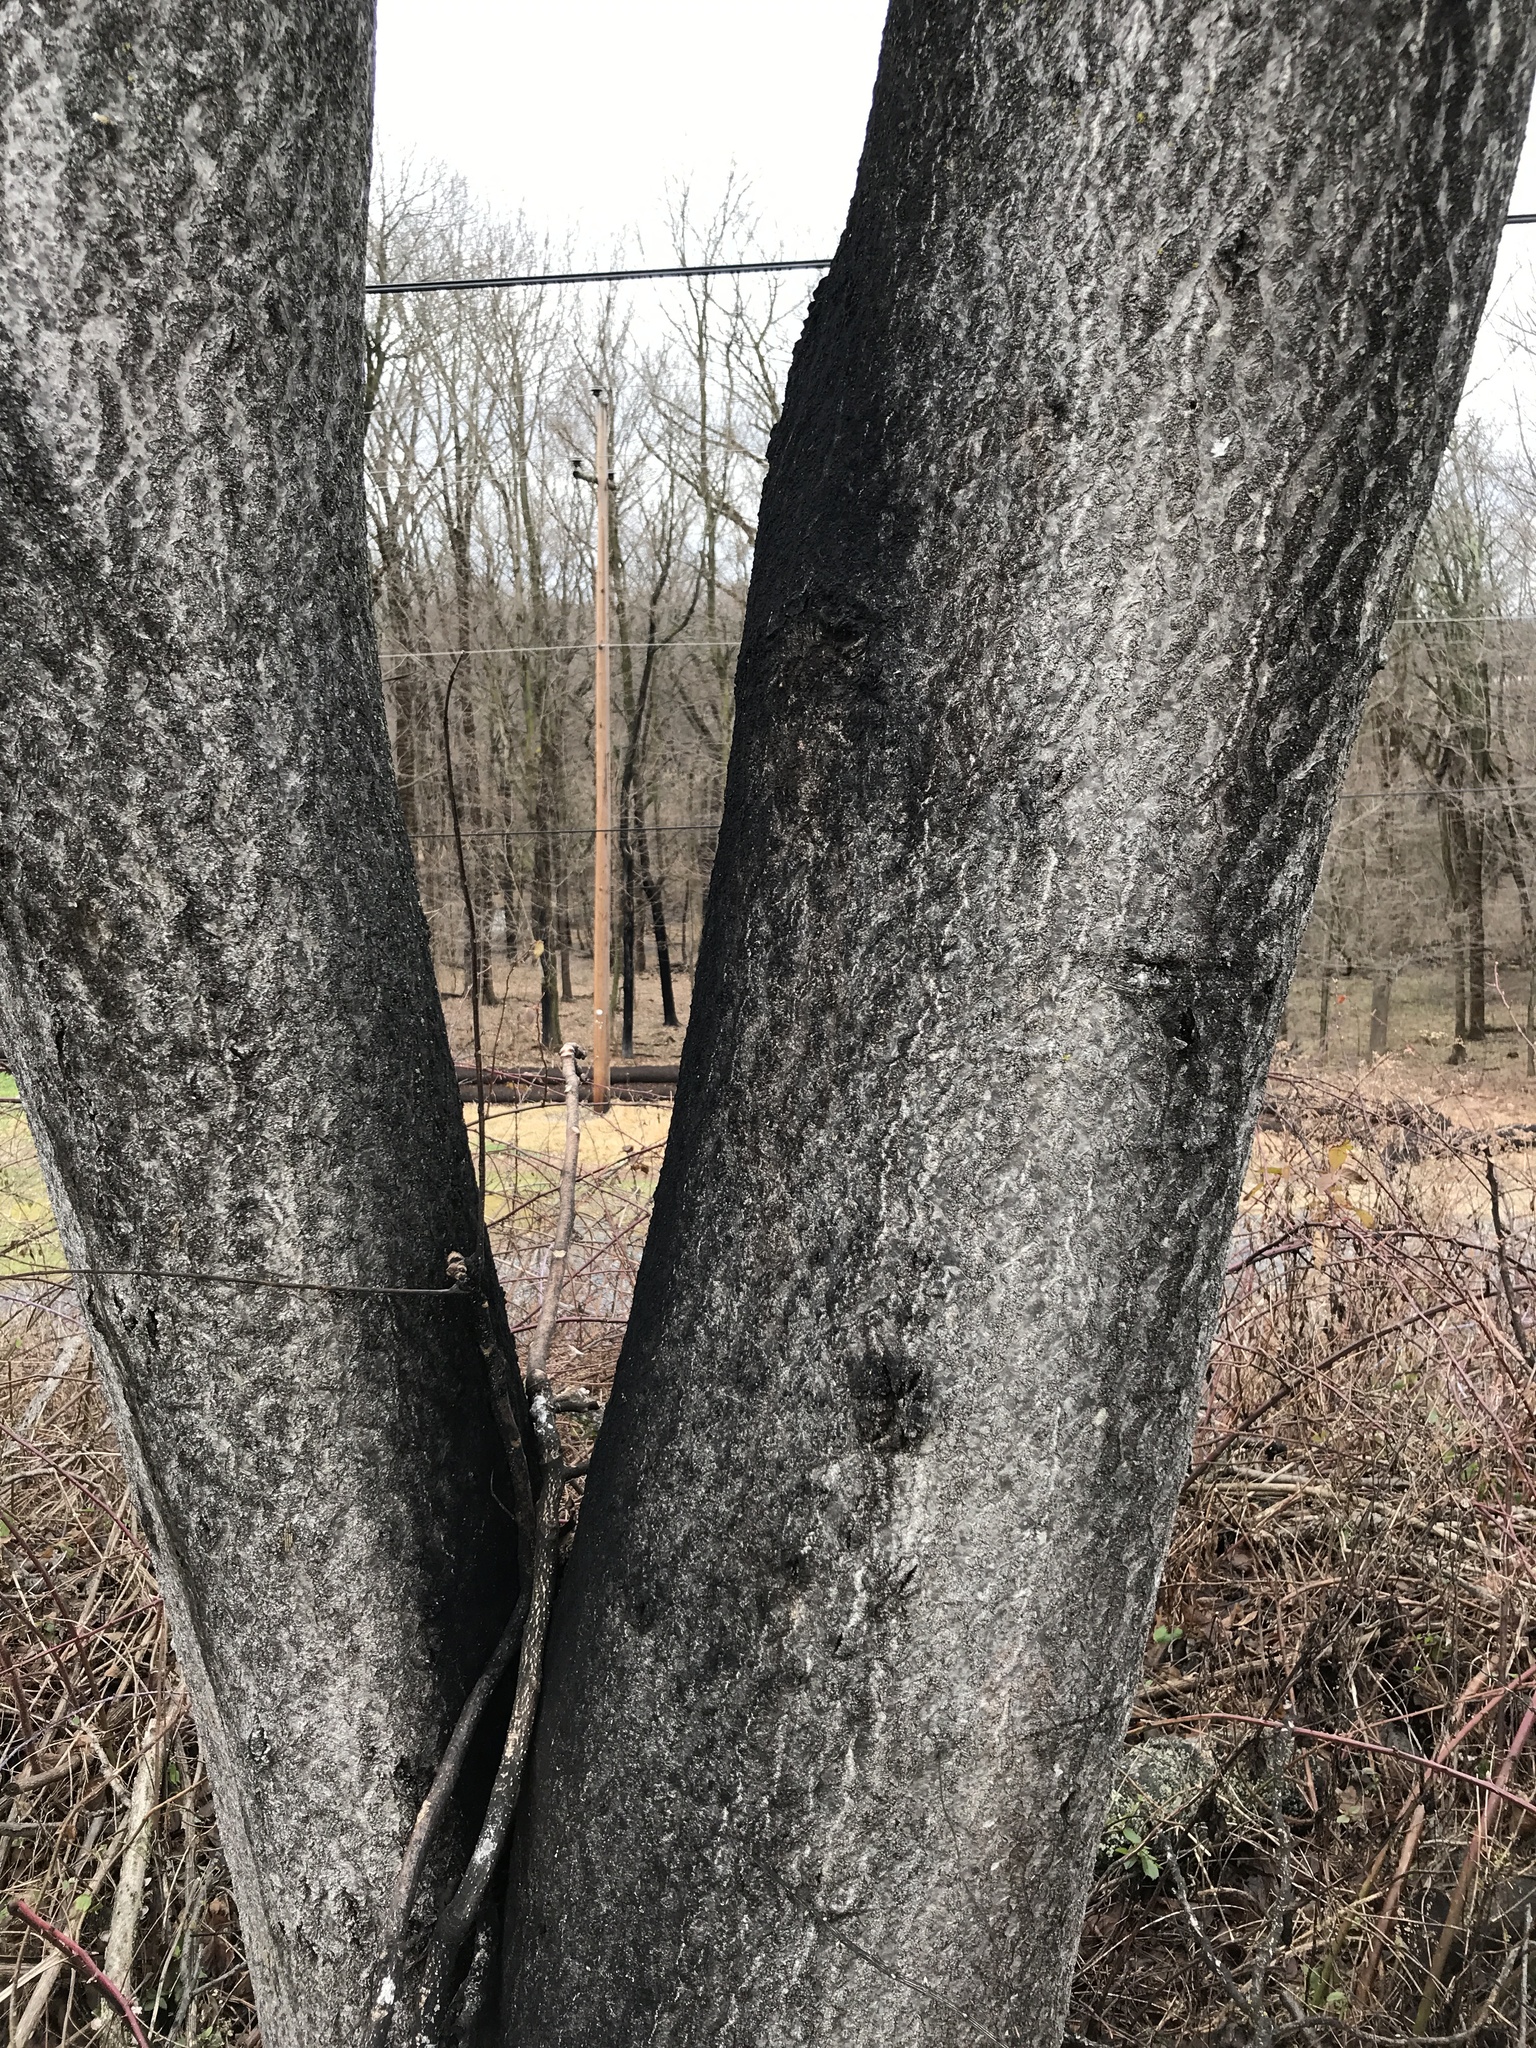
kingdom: Plantae
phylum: Tracheophyta
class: Magnoliopsida
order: Sapindales
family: Simaroubaceae
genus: Ailanthus
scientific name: Ailanthus altissima
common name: Tree-of-heaven
